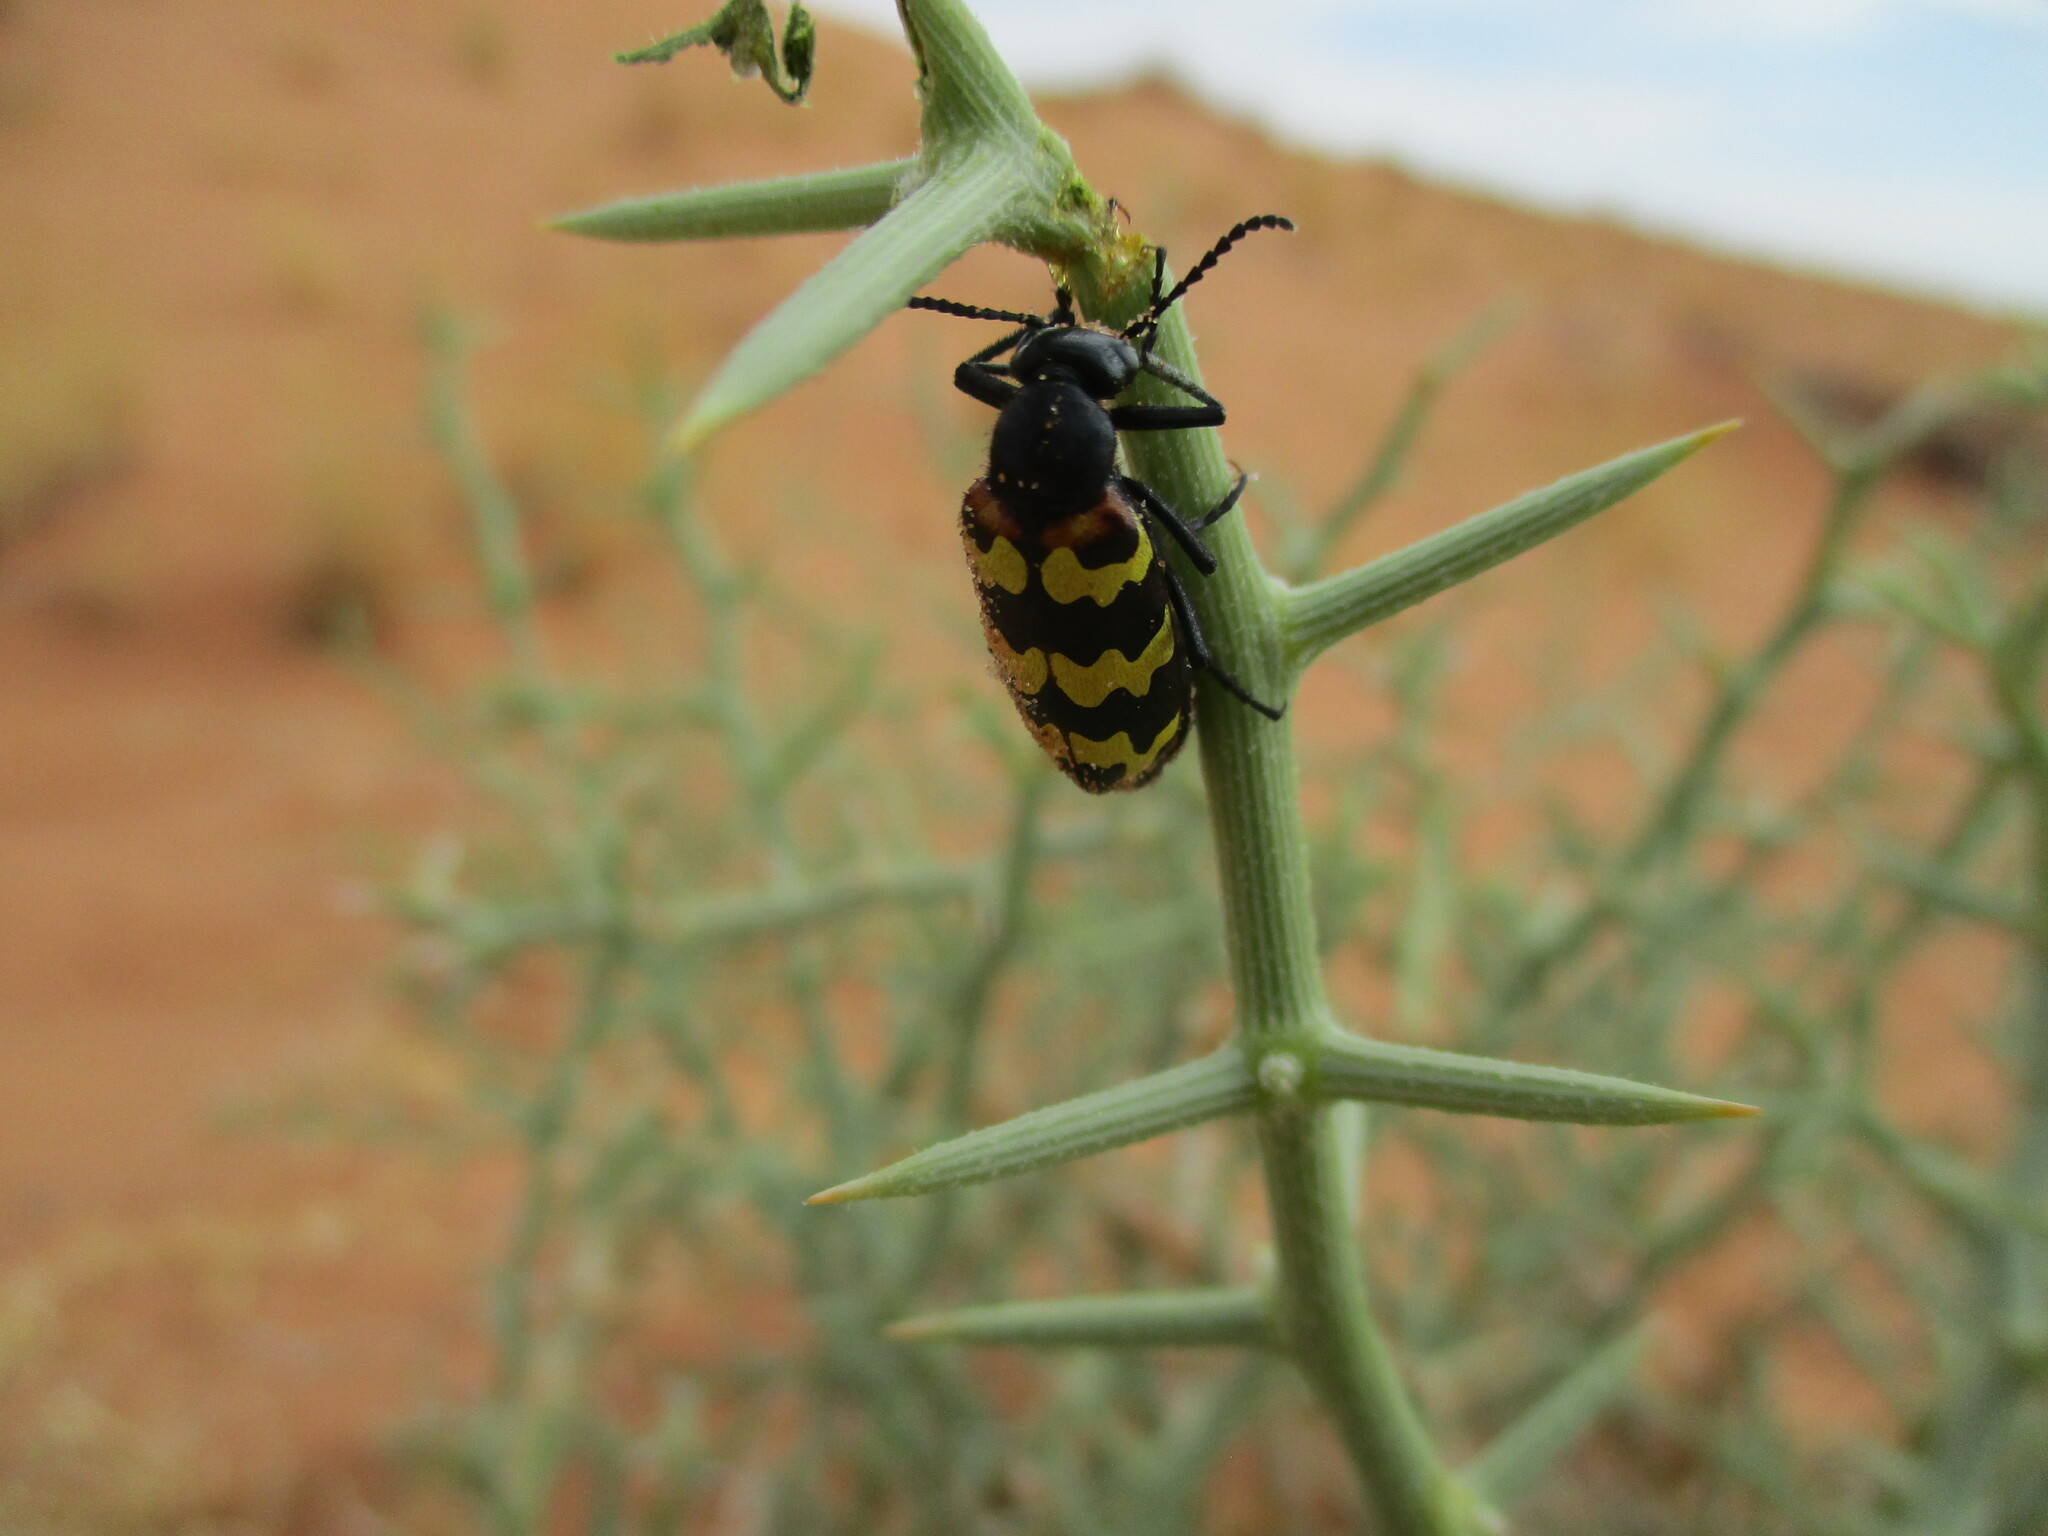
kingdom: Animalia
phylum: Arthropoda
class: Insecta
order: Coleoptera
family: Meloidae
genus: Hycleus
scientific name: Hycleus
